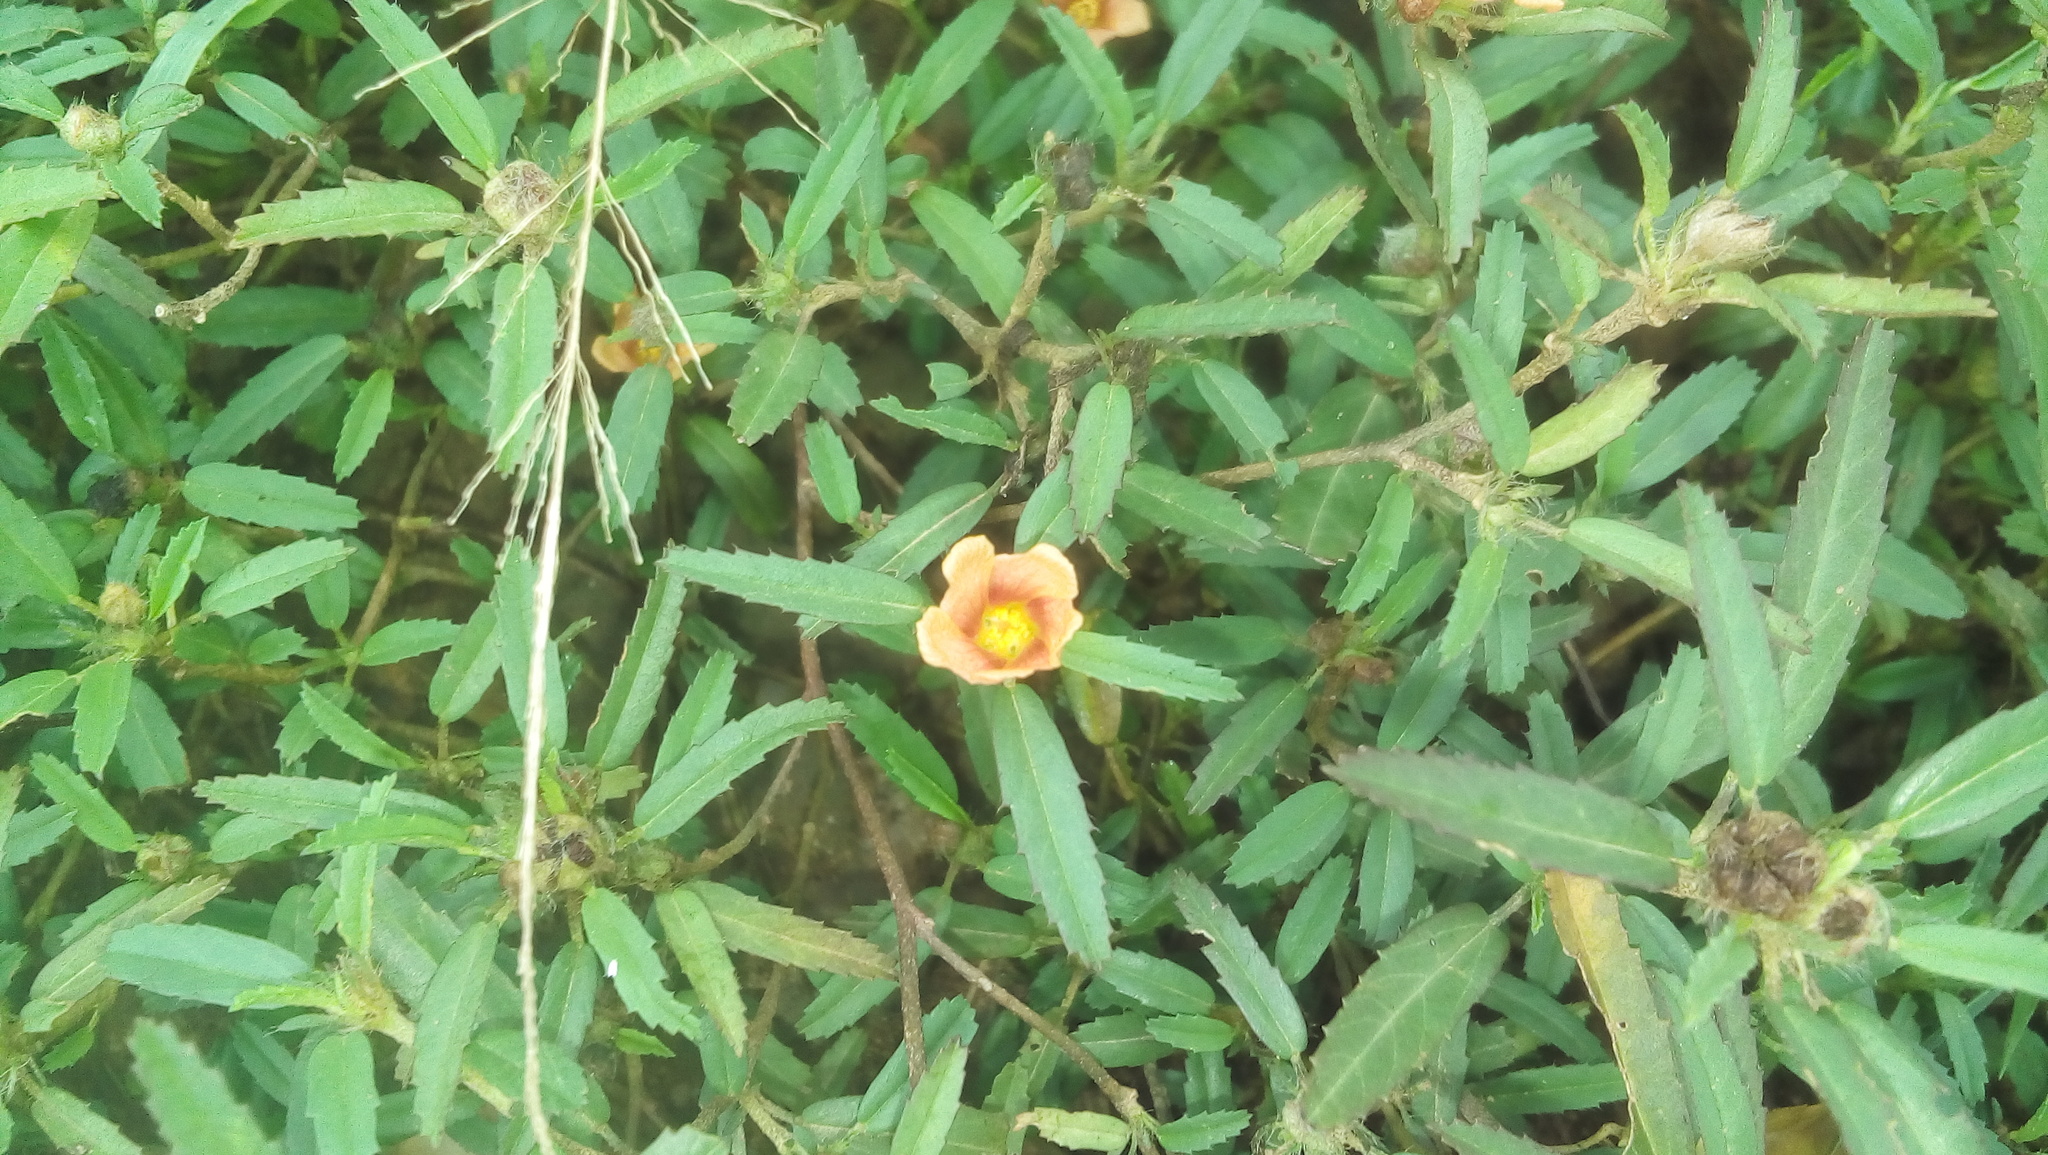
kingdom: Plantae
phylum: Tracheophyta
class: Magnoliopsida
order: Malvales
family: Malvaceae
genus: Sida
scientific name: Sida ciliaris
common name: Bracted fanpetals
